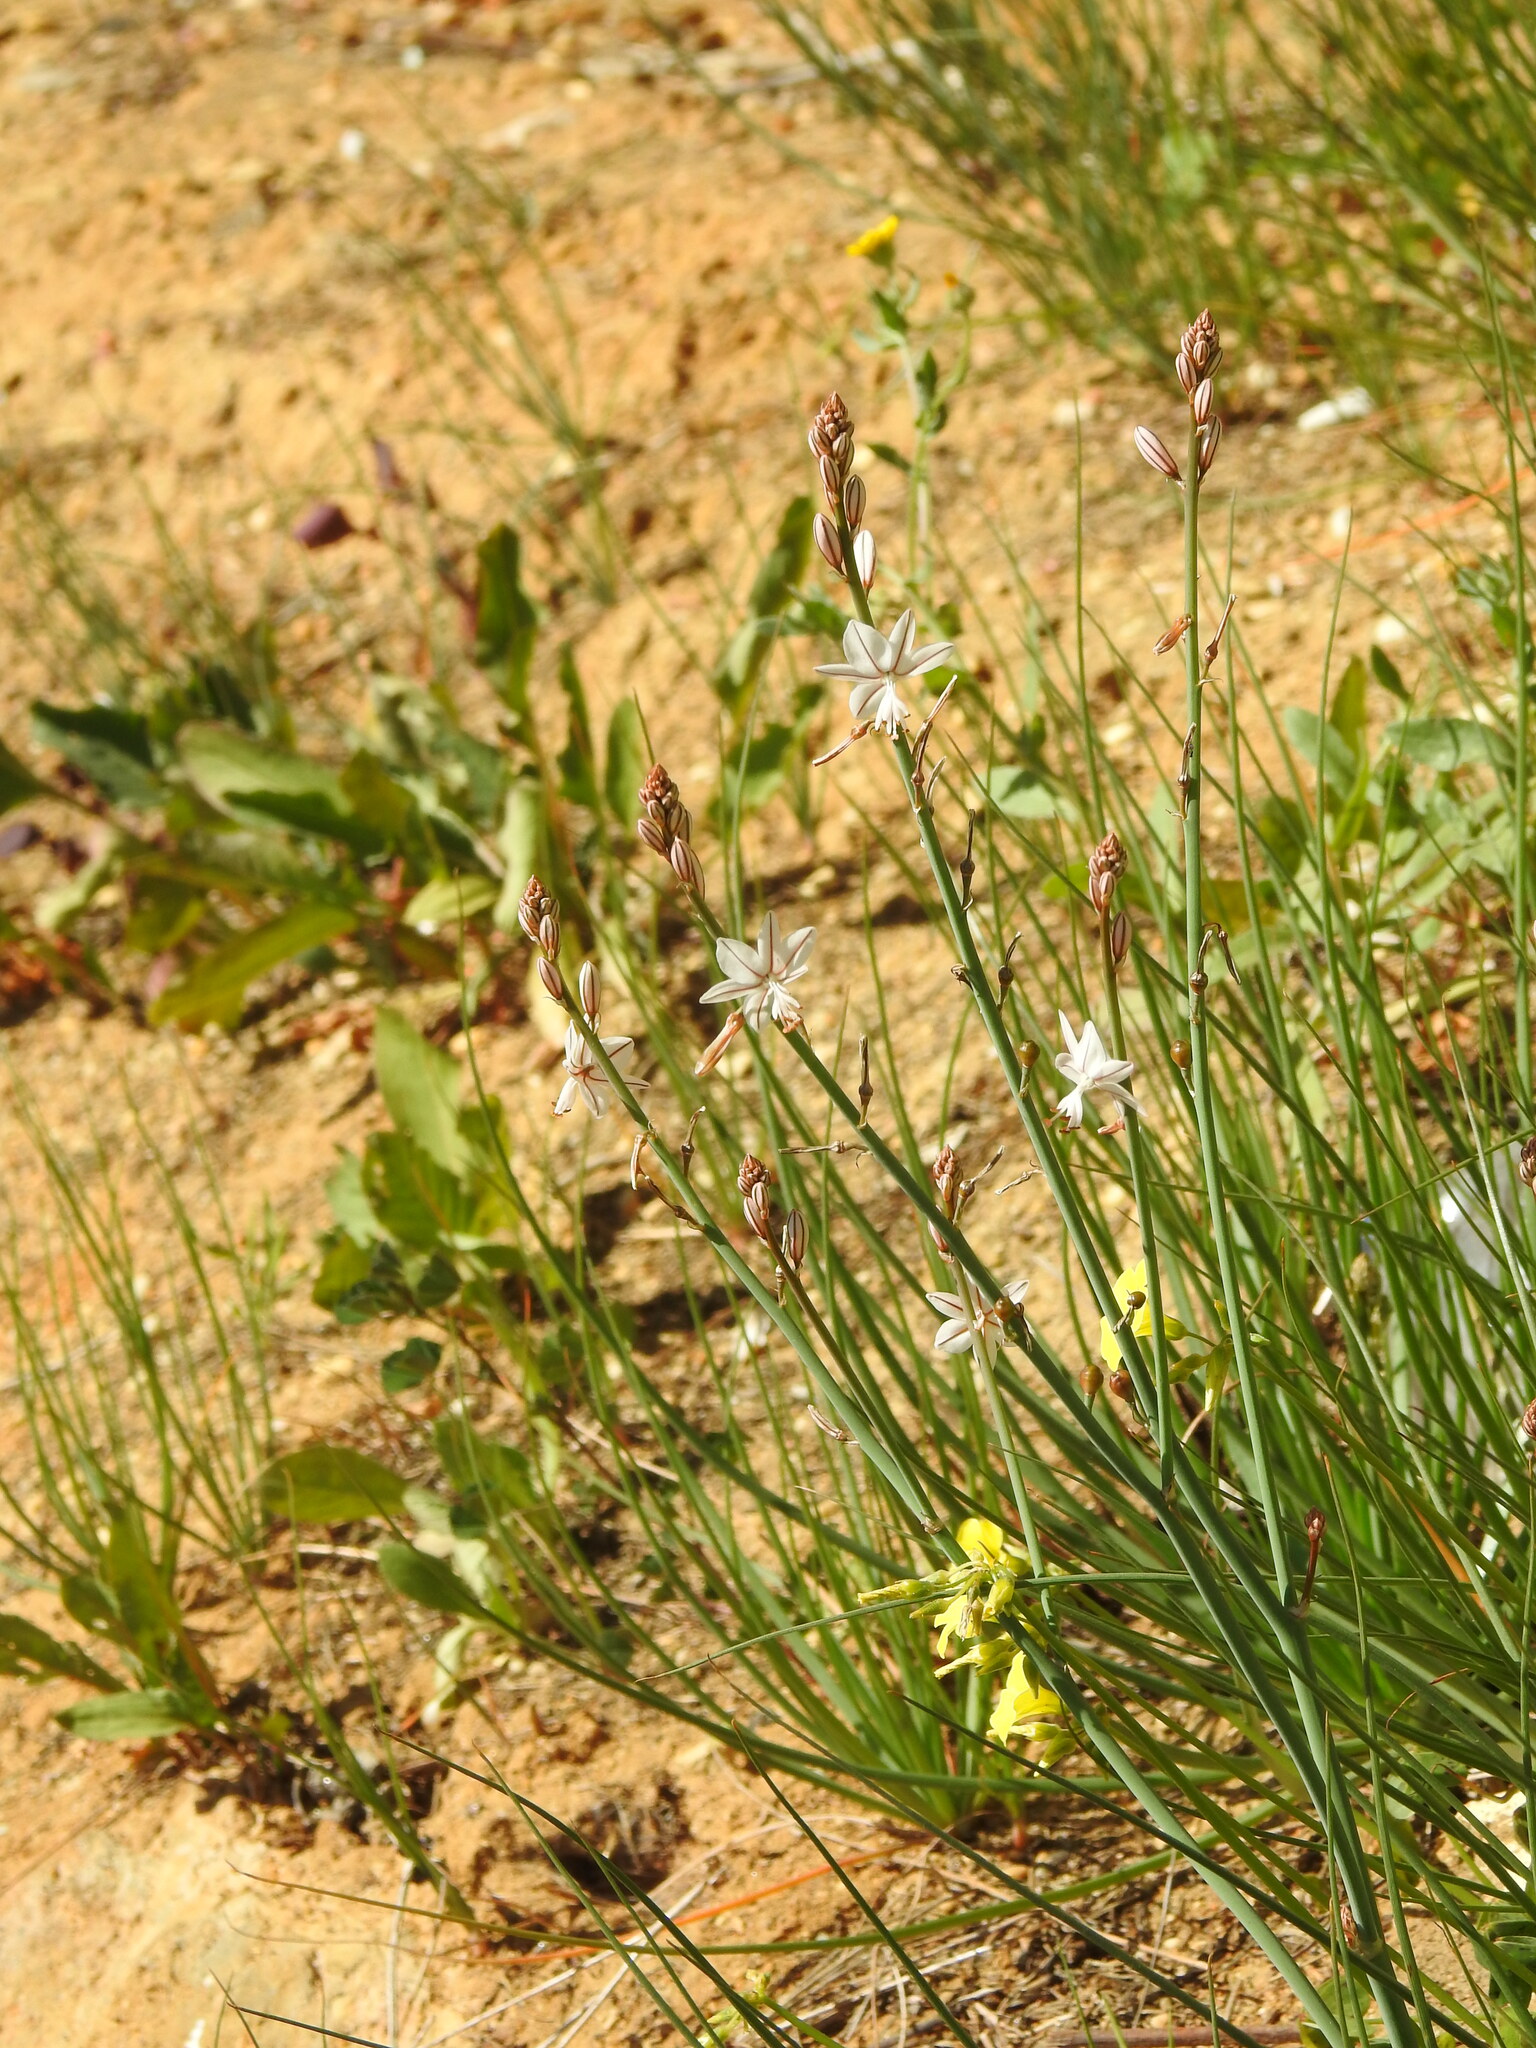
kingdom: Plantae
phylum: Tracheophyta
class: Liliopsida
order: Asparagales
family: Asphodelaceae
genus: Asphodelus
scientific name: Asphodelus fistulosus
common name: Onionweed
